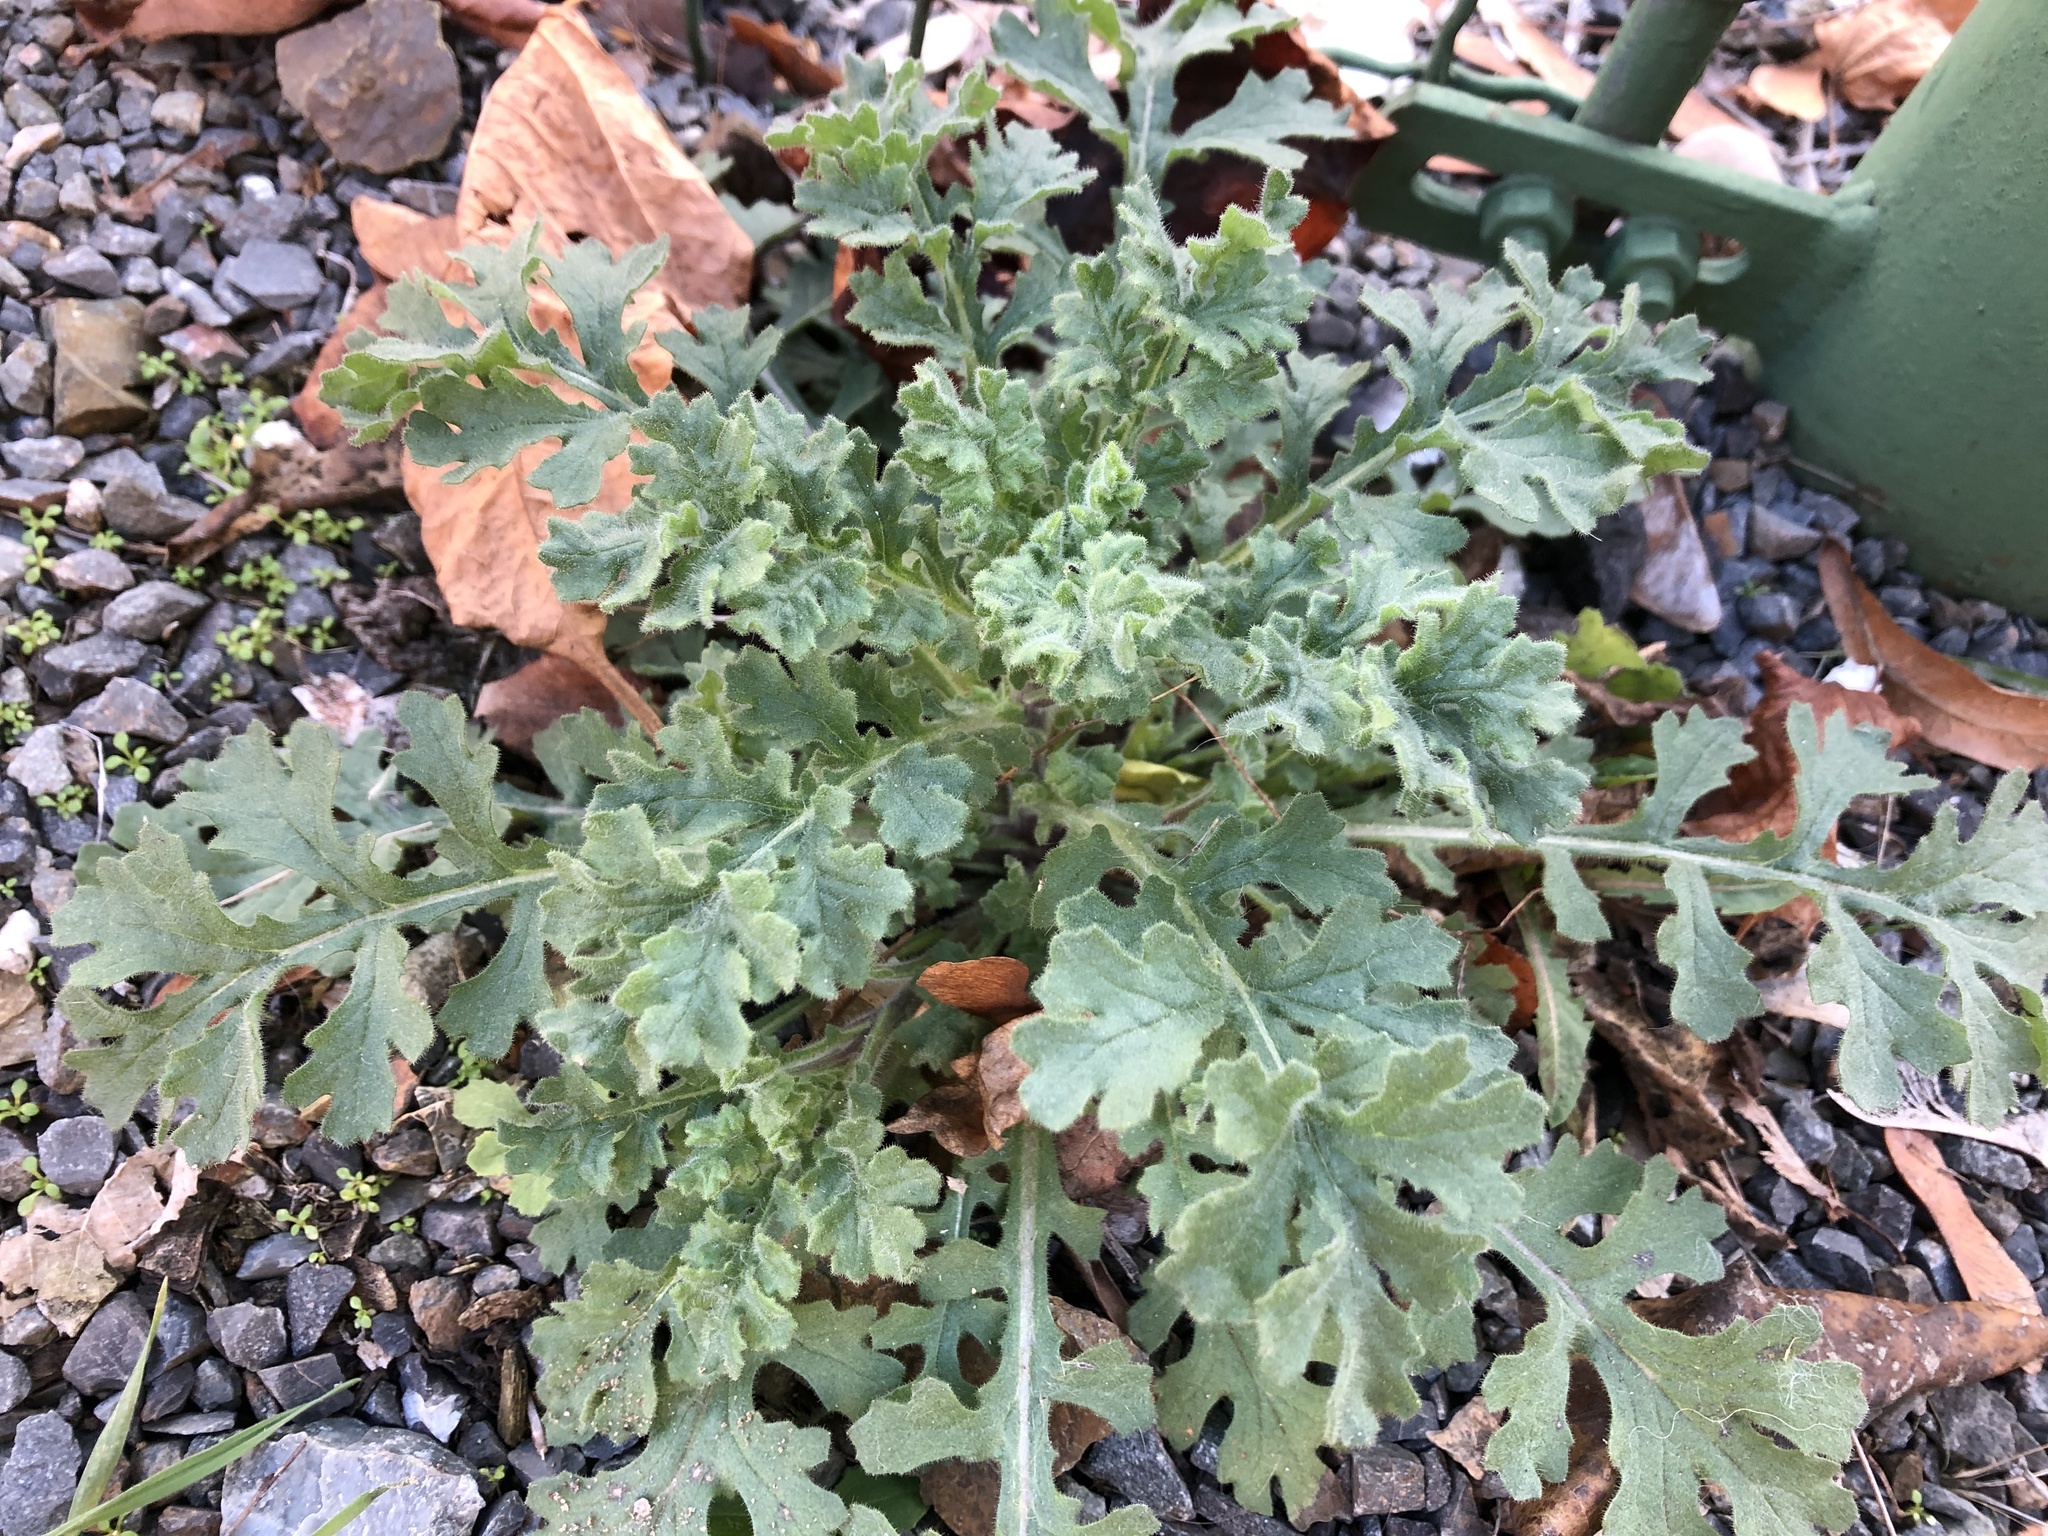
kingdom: Plantae
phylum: Tracheophyta
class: Magnoliopsida
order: Asterales
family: Asteraceae
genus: Jacobaea
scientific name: Jacobaea vulgaris
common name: Stinking willie
